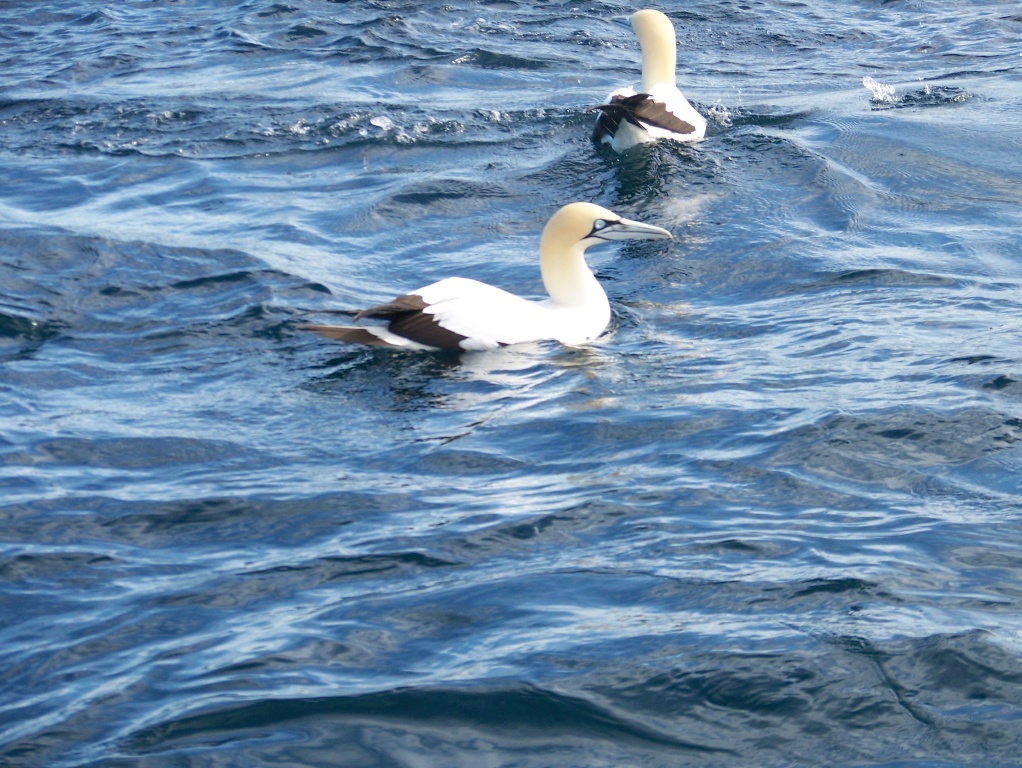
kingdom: Animalia
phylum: Chordata
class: Aves
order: Suliformes
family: Sulidae
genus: Morus
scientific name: Morus capensis
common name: Cape gannet
